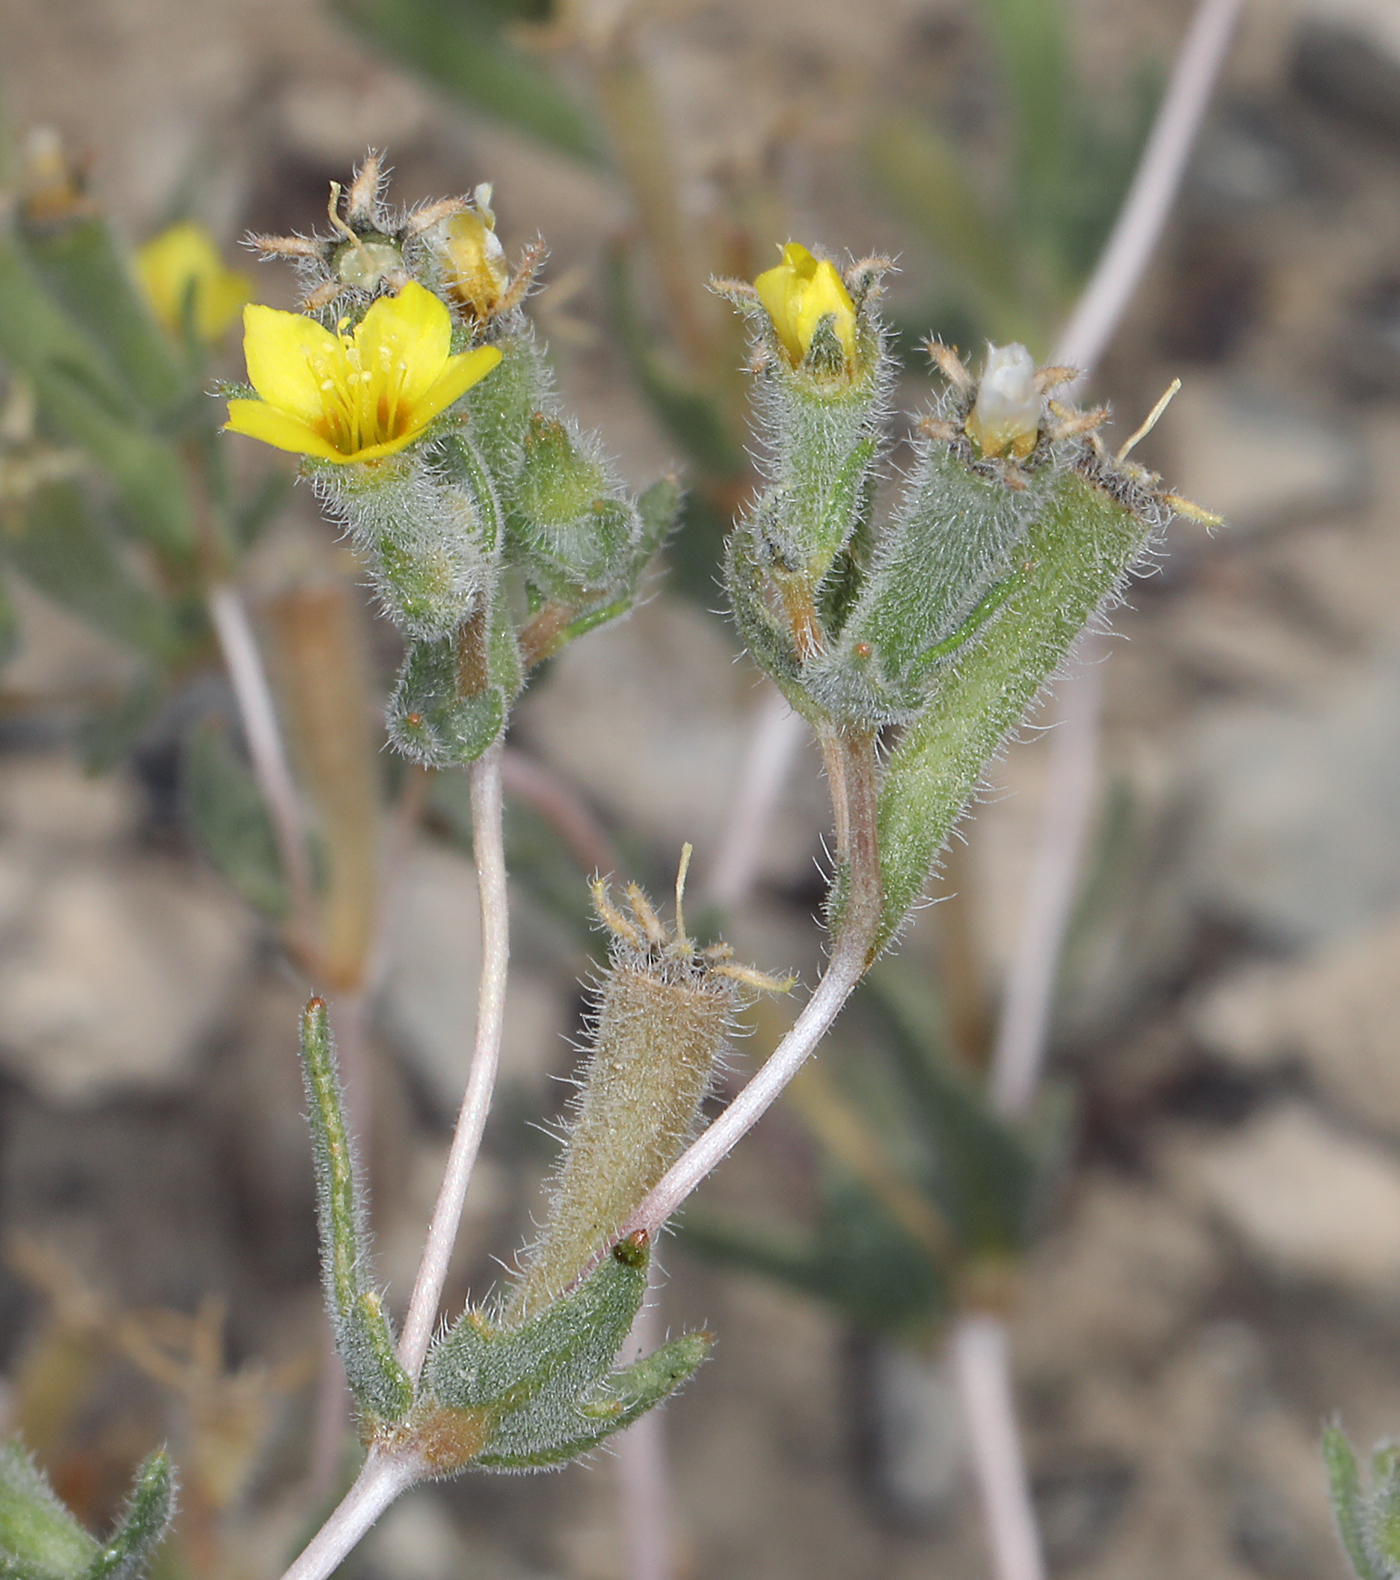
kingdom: Plantae
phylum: Tracheophyta
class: Magnoliopsida
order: Cornales
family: Loasaceae
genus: Mentzelia
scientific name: Mentzelia albicaulis
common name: White-stem blazingstar
